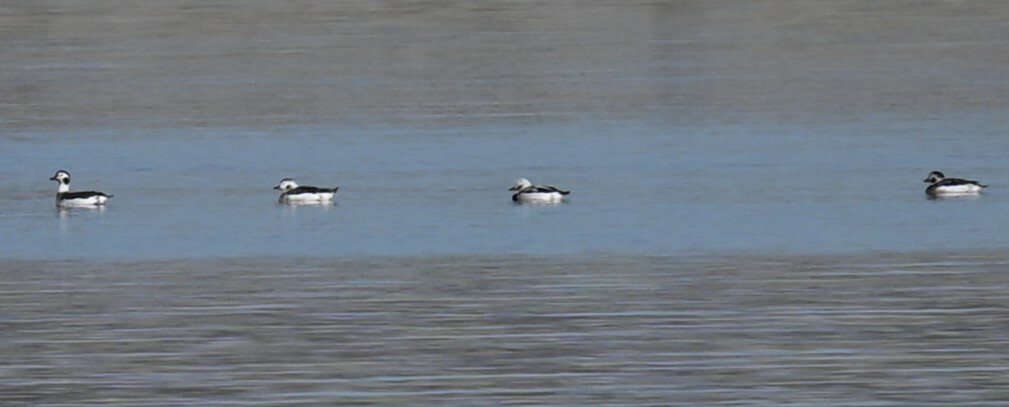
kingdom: Animalia
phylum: Chordata
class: Aves
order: Anseriformes
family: Anatidae
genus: Clangula
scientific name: Clangula hyemalis
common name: Long-tailed duck
